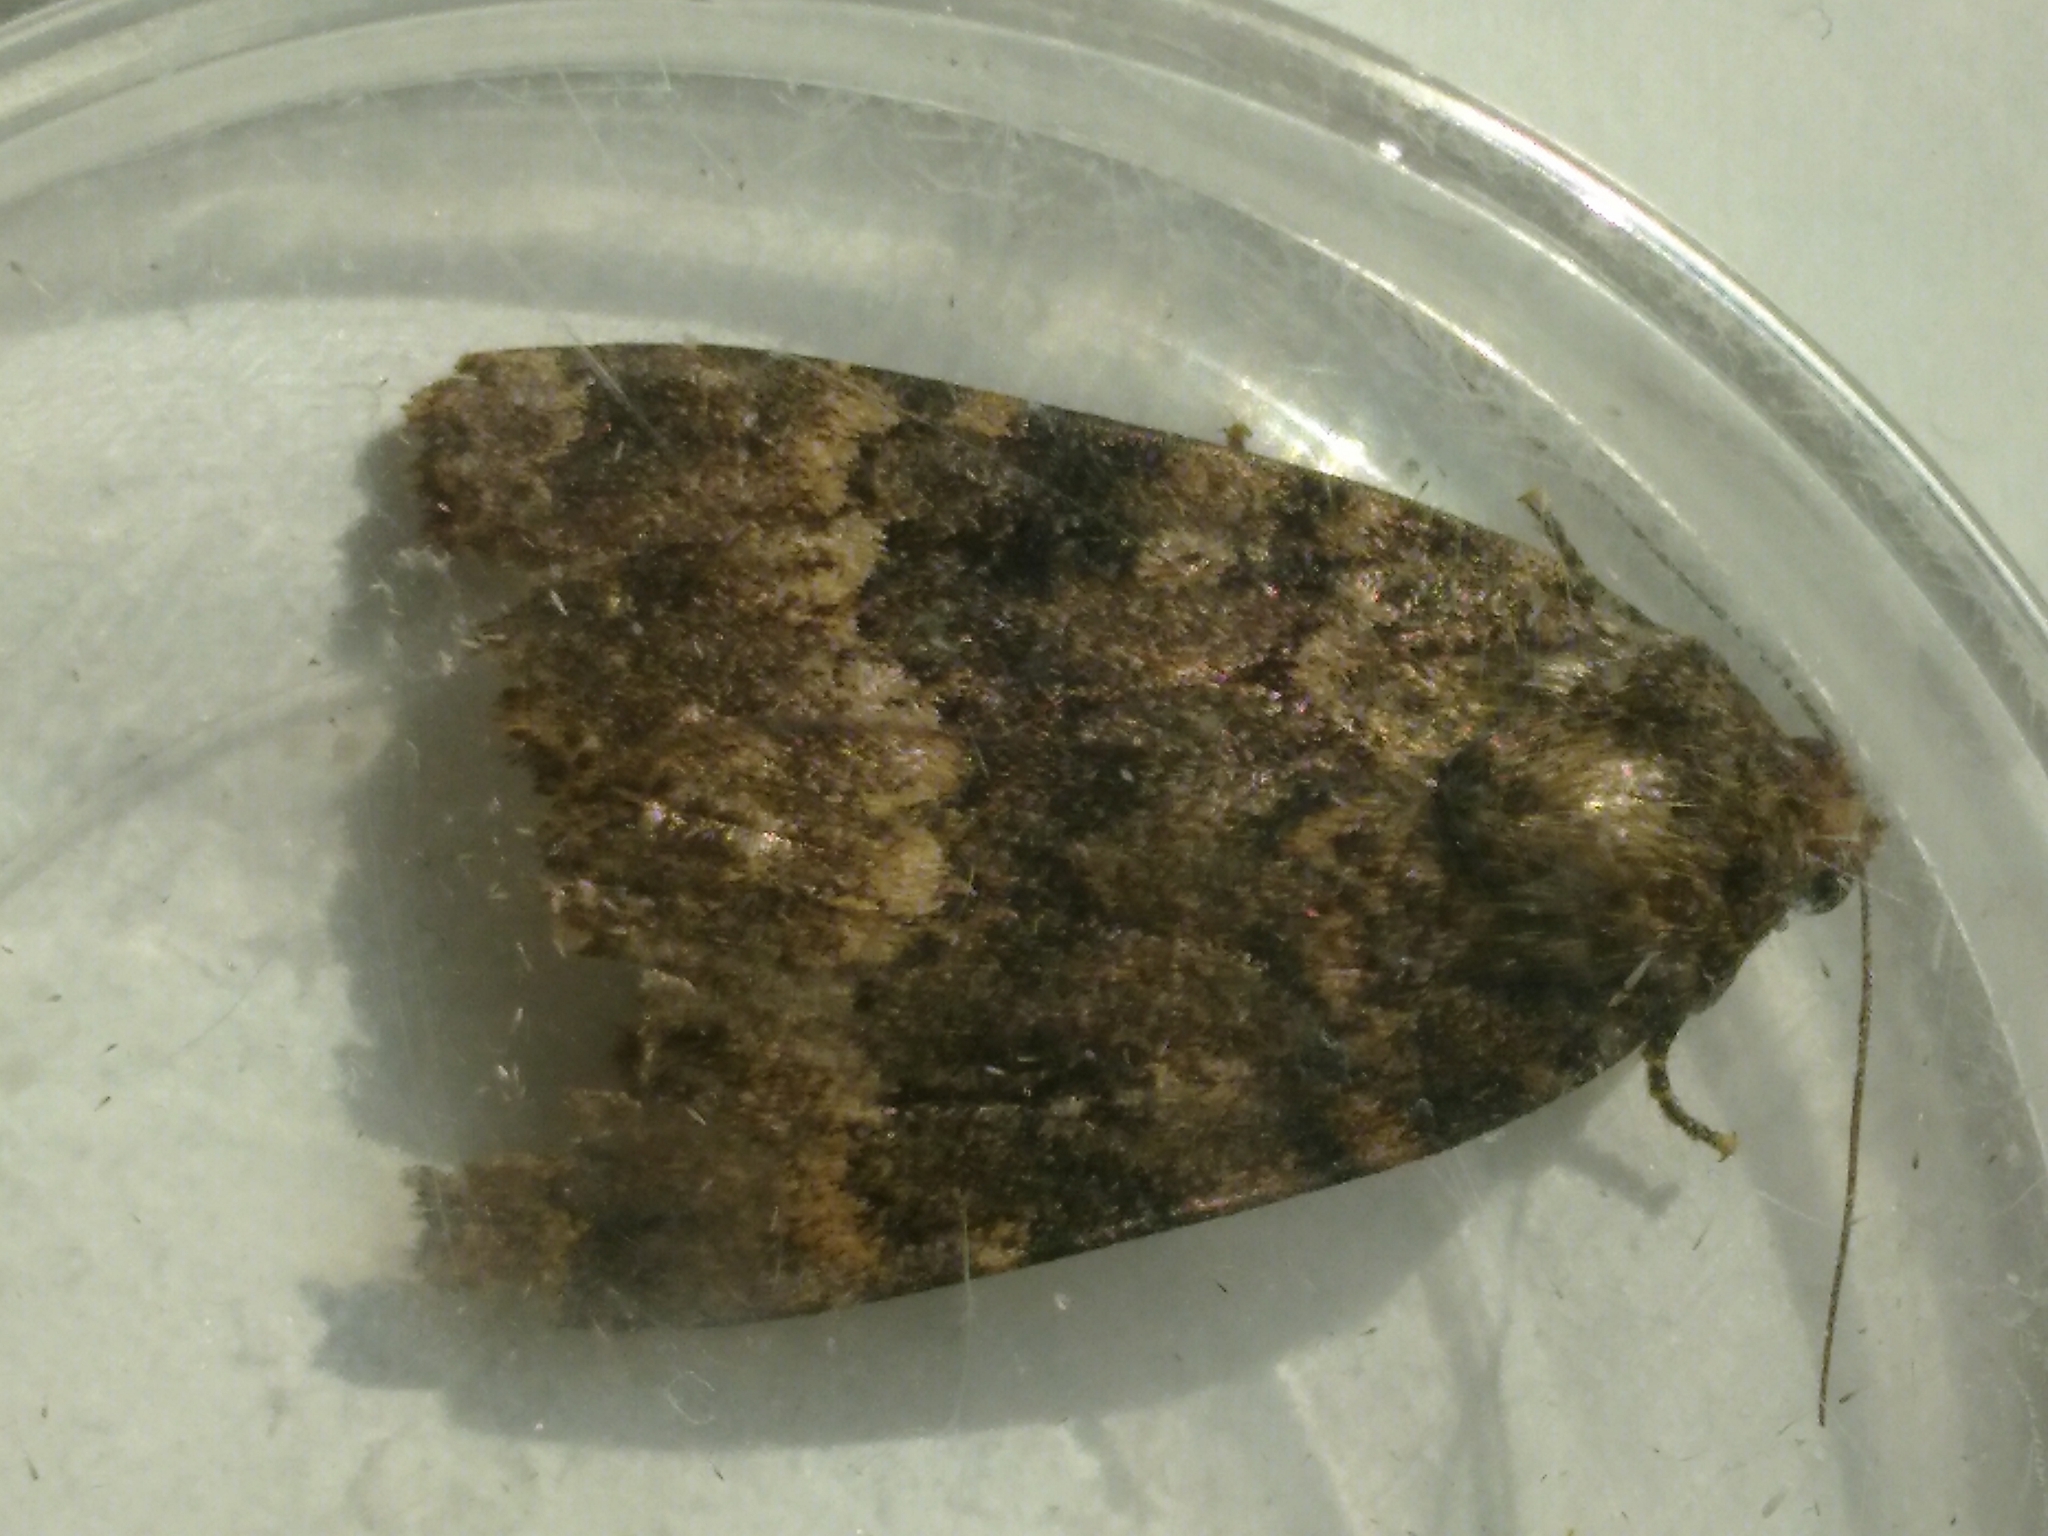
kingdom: Animalia
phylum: Arthropoda
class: Insecta
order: Lepidoptera
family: Noctuidae
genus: Amphipyra
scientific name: Amphipyra berbera
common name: Svensson's copper underwing
